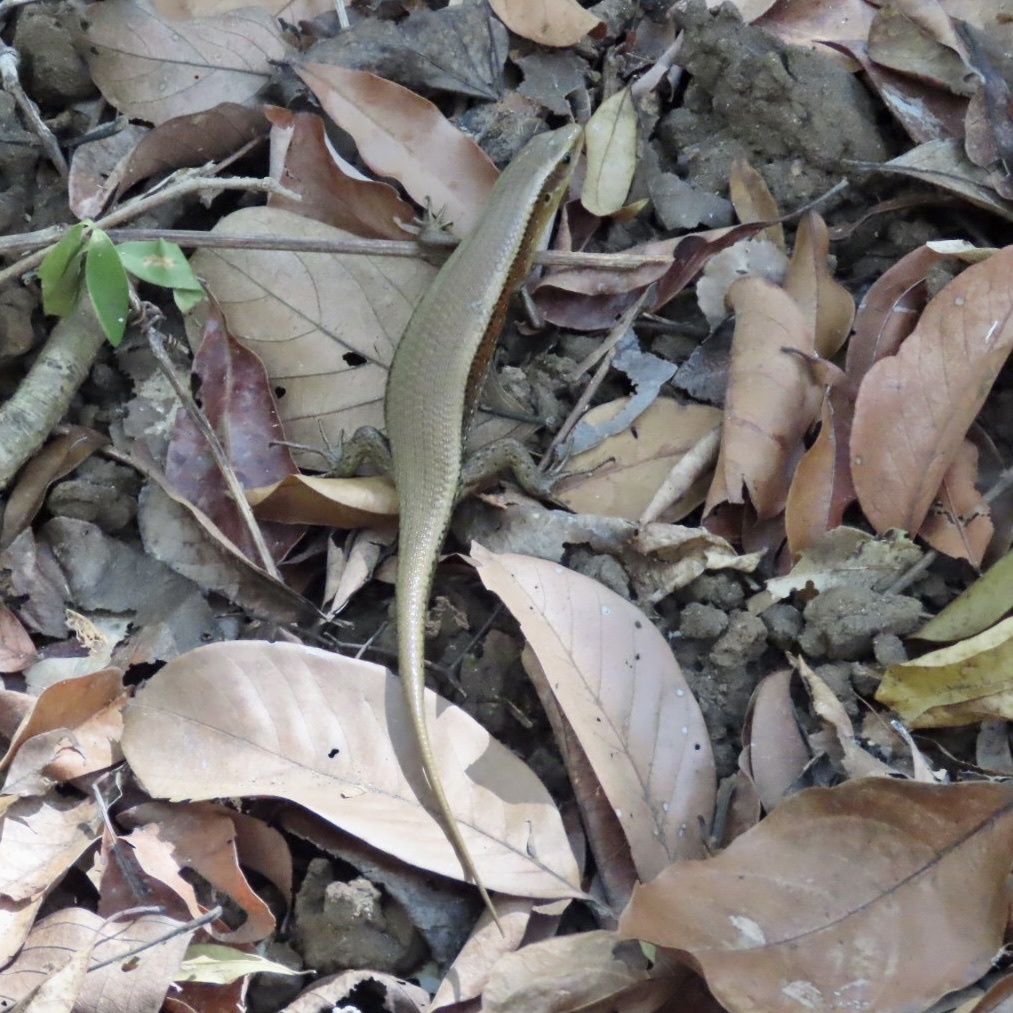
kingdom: Animalia
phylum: Chordata
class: Squamata
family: Scincidae
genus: Eutropis
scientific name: Eutropis multifasciata
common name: Common mabuya
